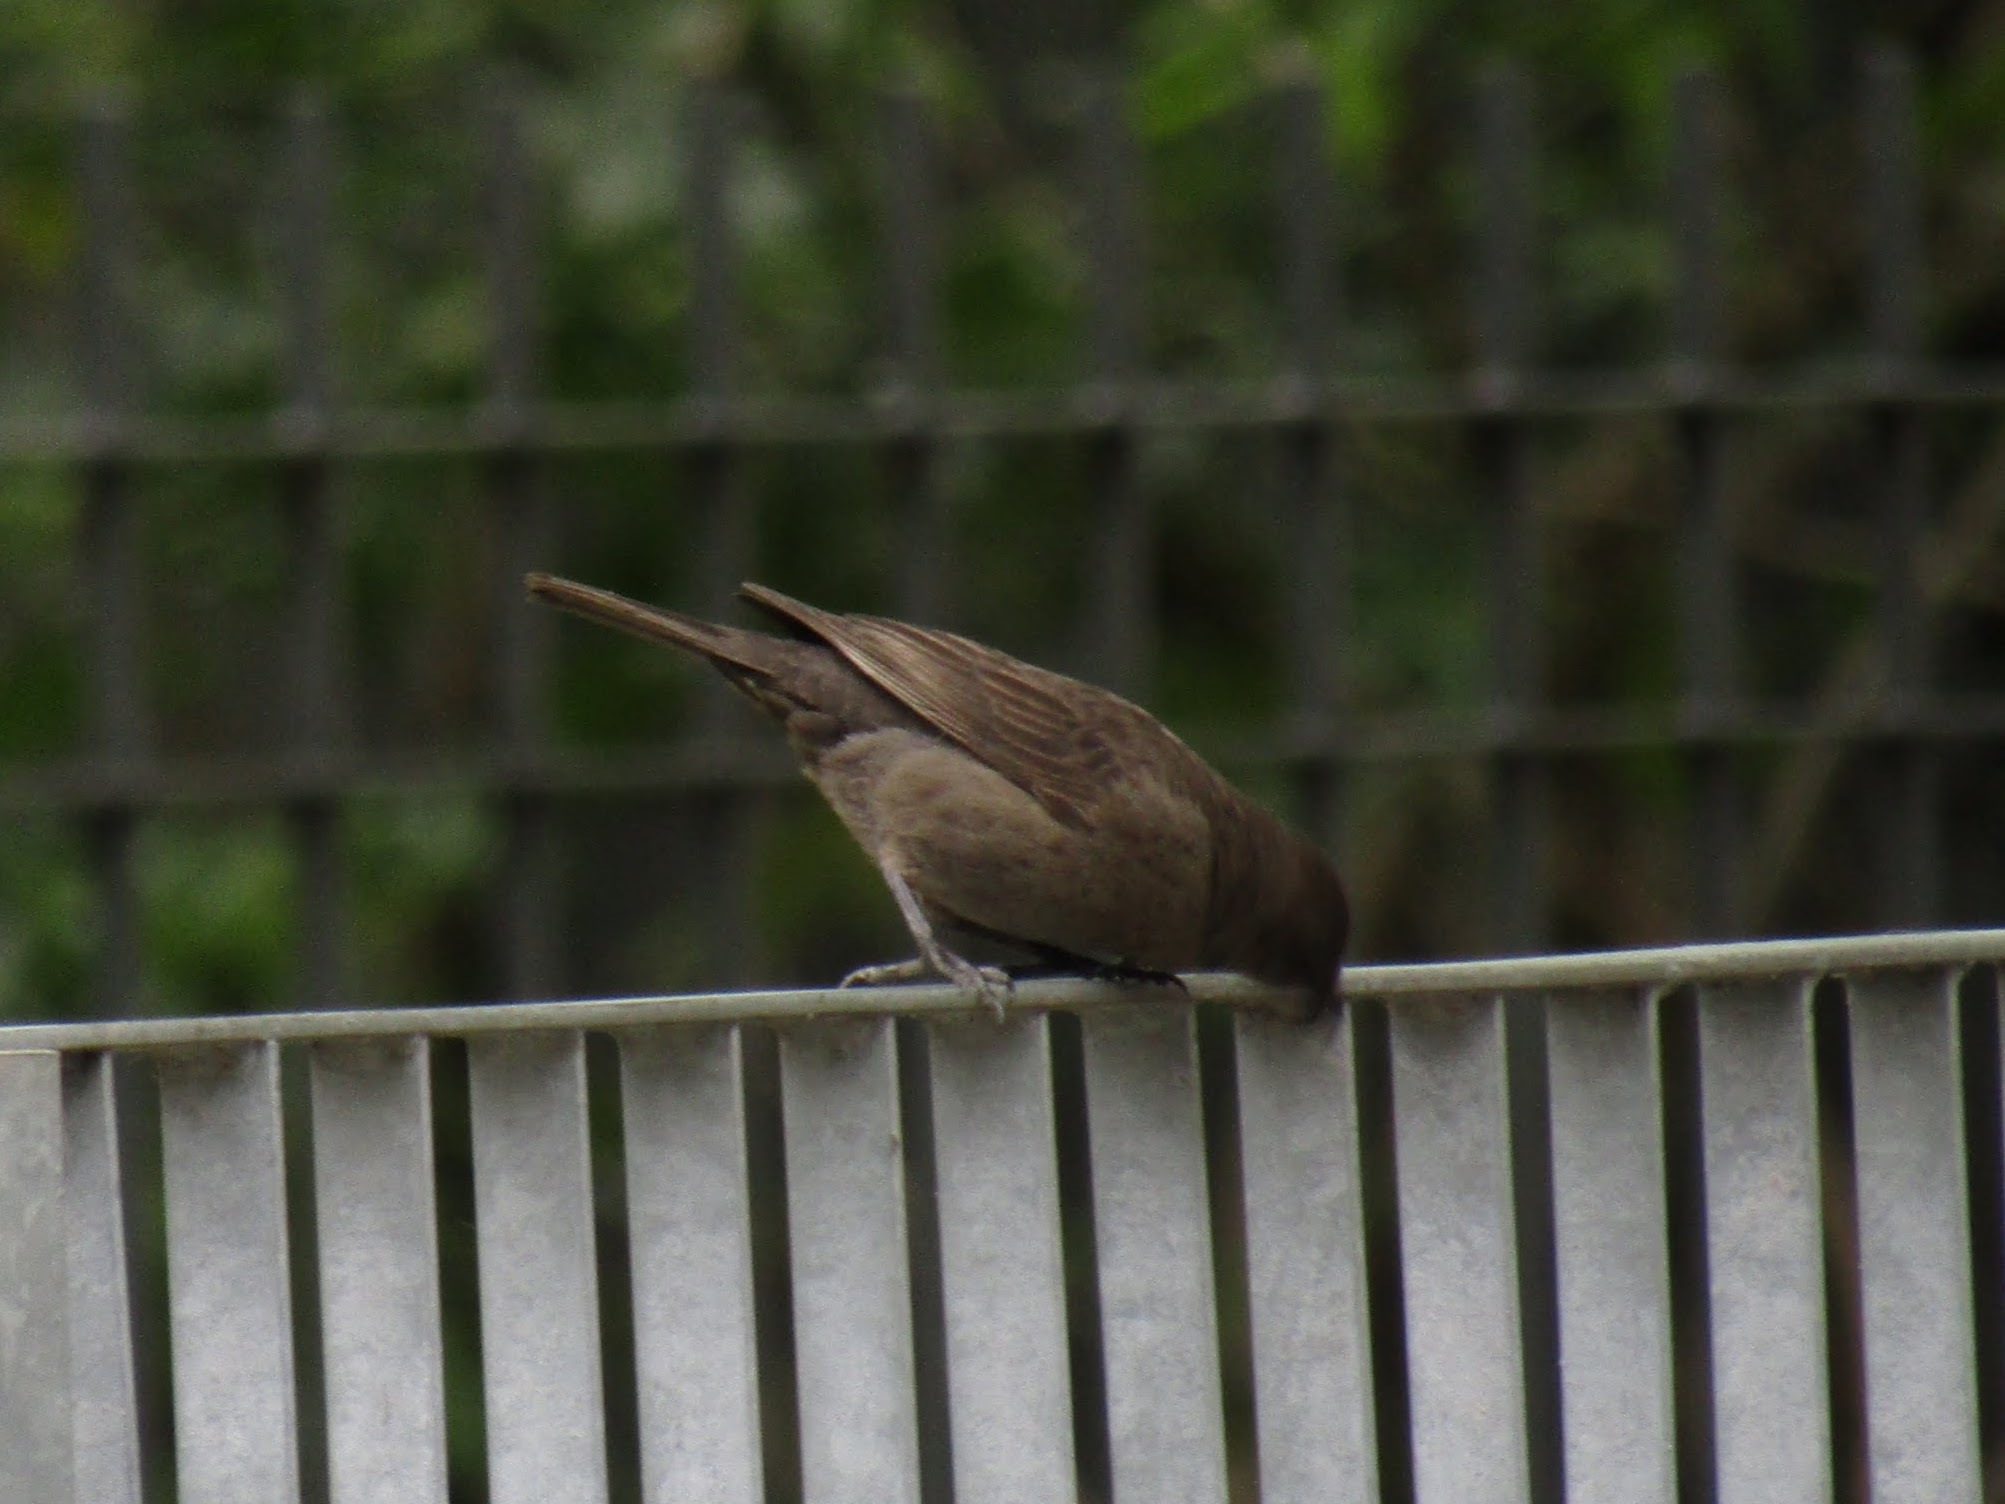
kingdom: Animalia
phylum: Chordata
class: Aves
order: Passeriformes
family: Icteridae
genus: Molothrus
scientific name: Molothrus bonariensis
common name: Shiny cowbird
